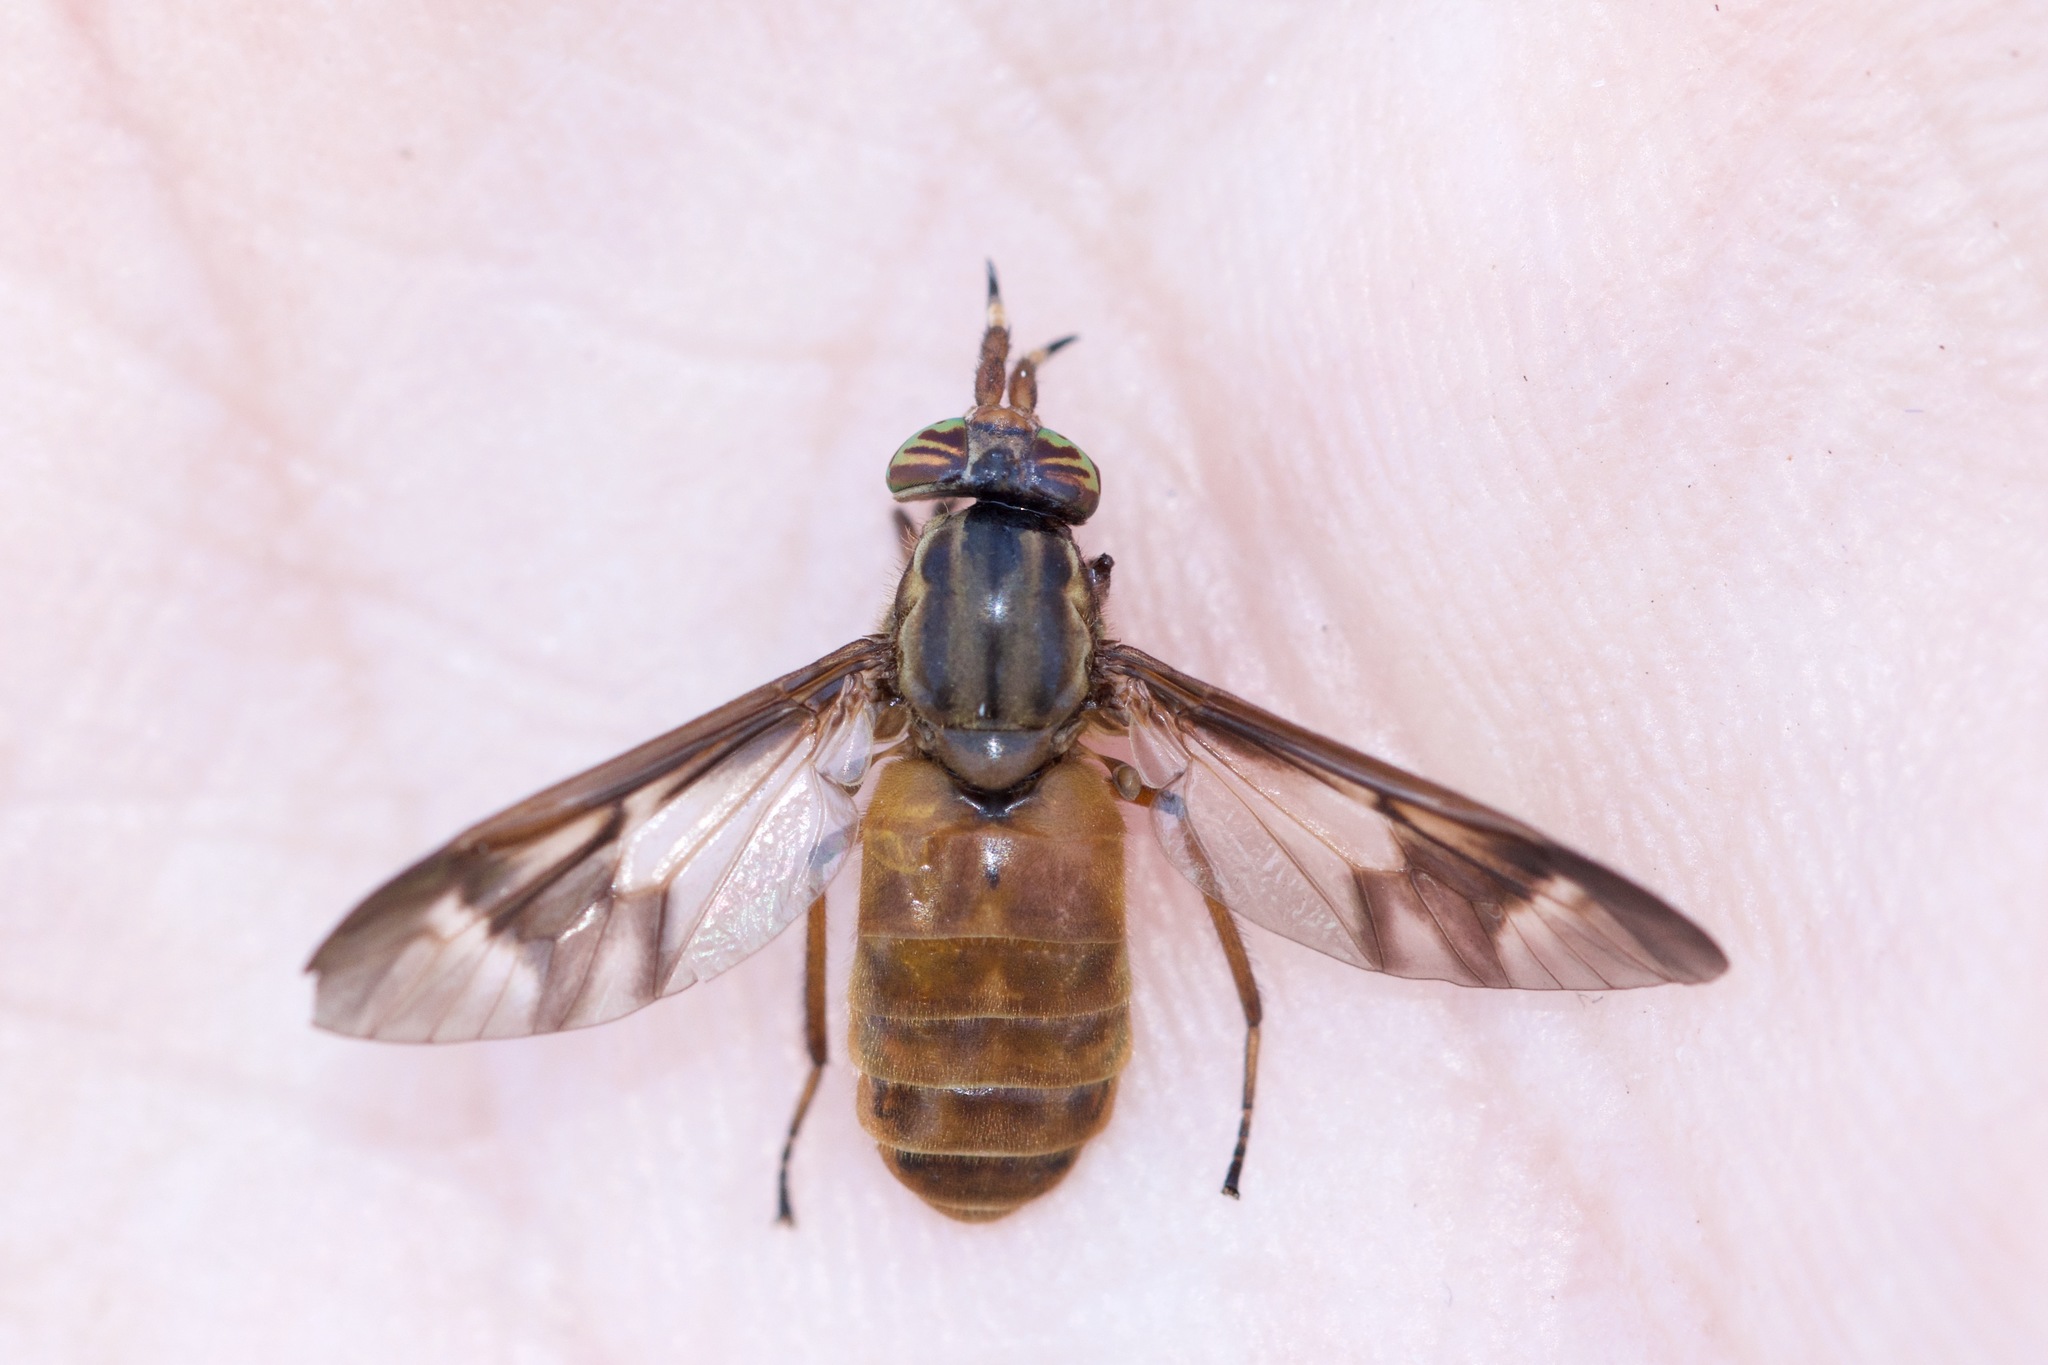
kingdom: Animalia
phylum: Arthropoda
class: Insecta
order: Diptera
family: Tabanidae
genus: Chrysops
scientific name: Chrysops brunneus
